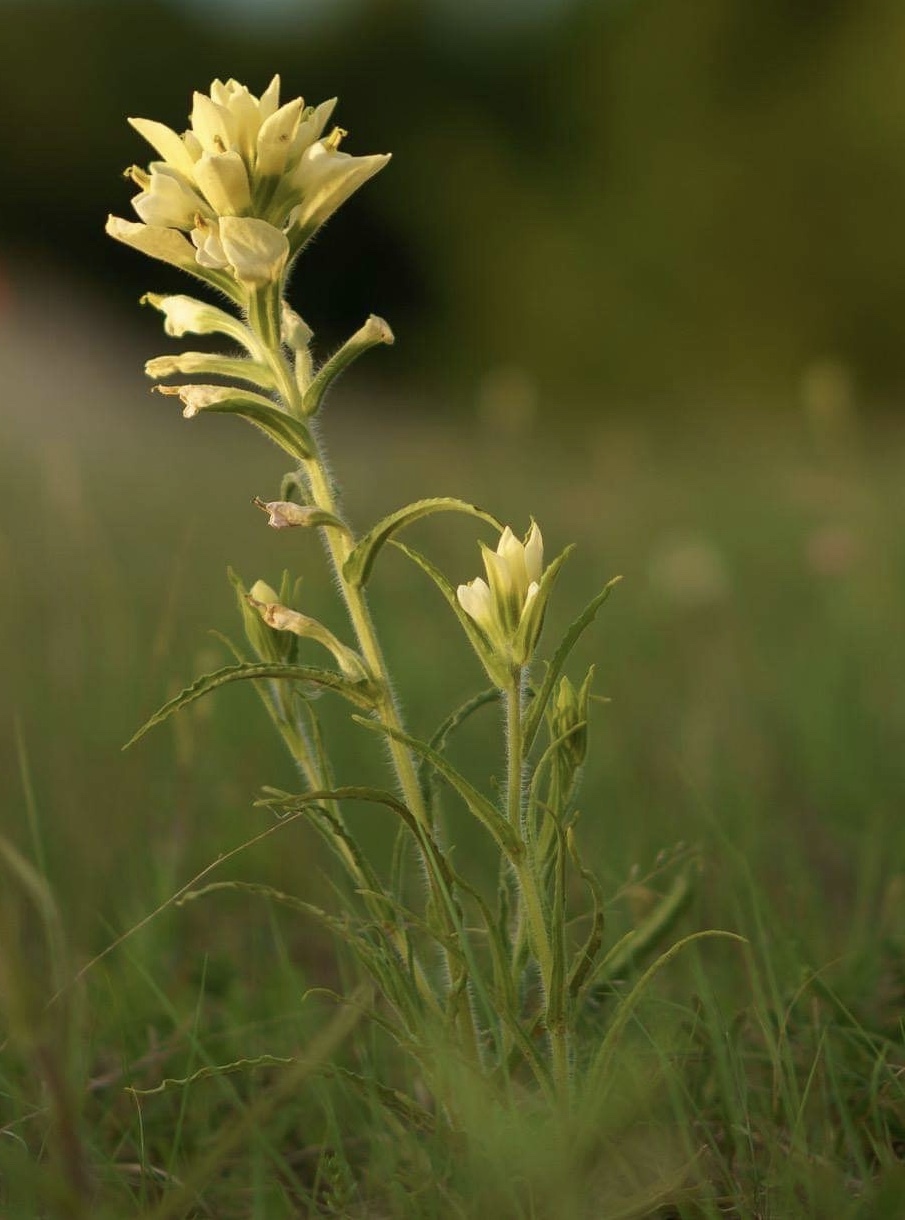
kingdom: Plantae
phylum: Tracheophyta
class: Magnoliopsida
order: Lamiales
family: Orobanchaceae
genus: Castilleja
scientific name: Castilleja indivisa
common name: Texas paintbrush
